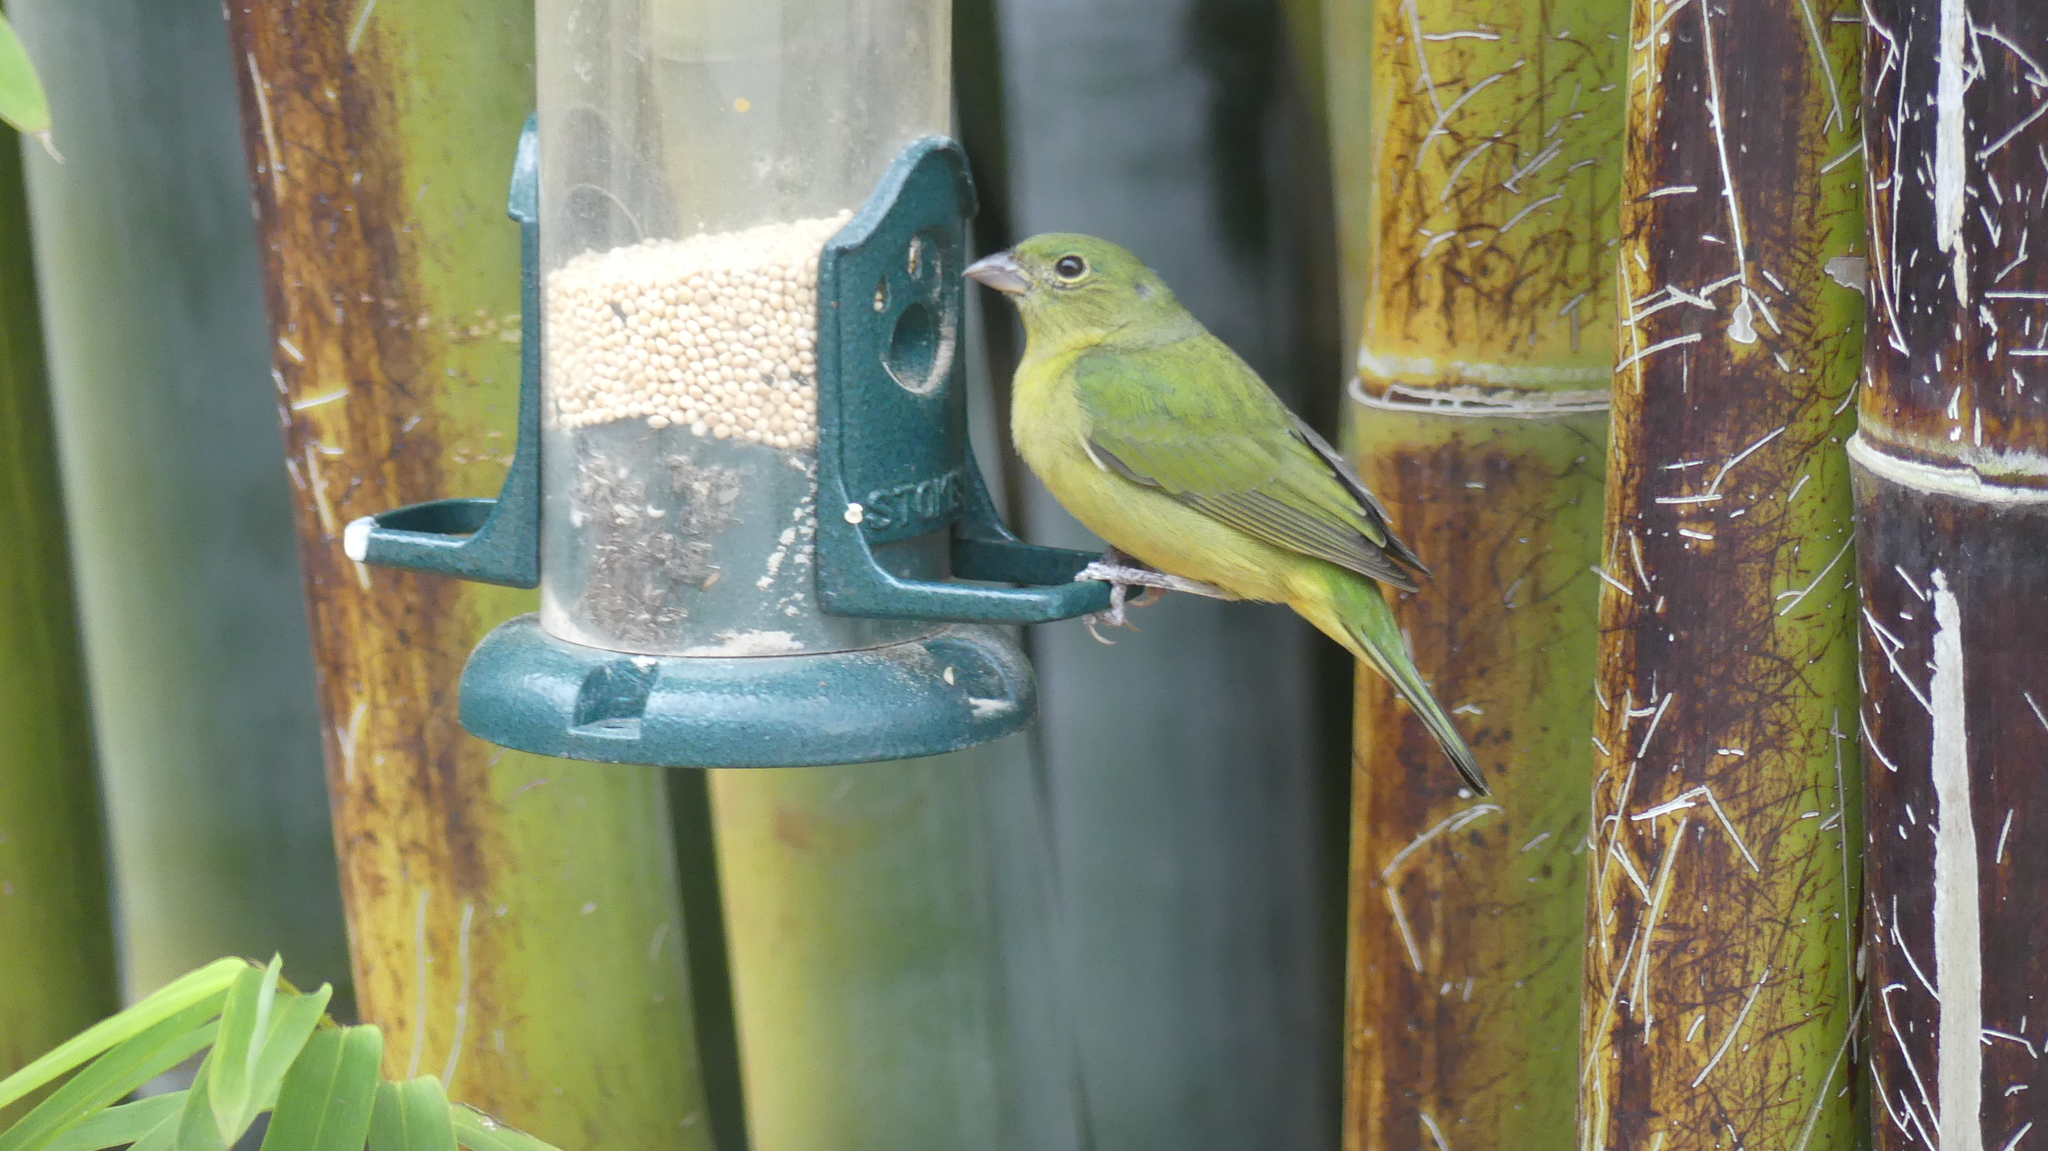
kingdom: Animalia
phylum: Chordata
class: Aves
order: Passeriformes
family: Cardinalidae
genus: Passerina
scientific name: Passerina ciris
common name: Painted bunting
